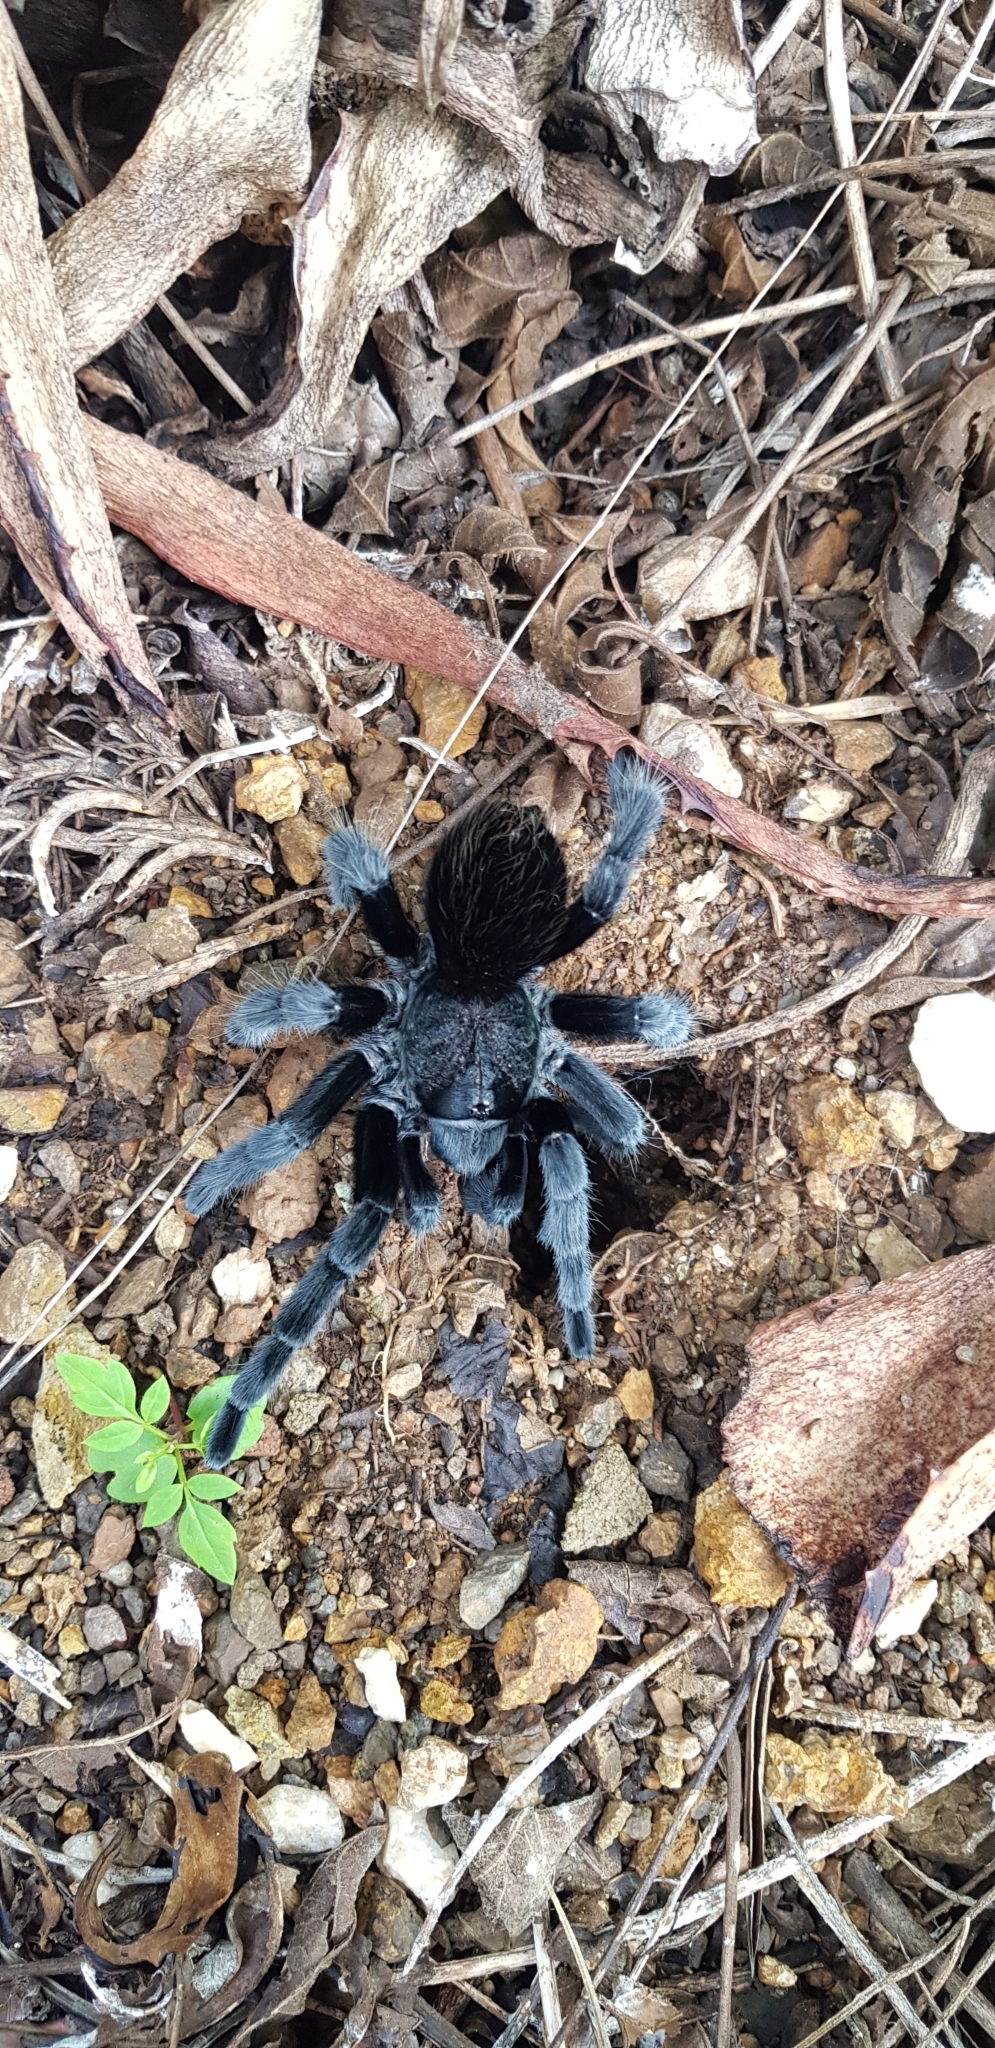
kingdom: Animalia
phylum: Arthropoda
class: Arachnida
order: Araneae
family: Theraphosidae
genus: Tliltocatl
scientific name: Tliltocatl schroederi
